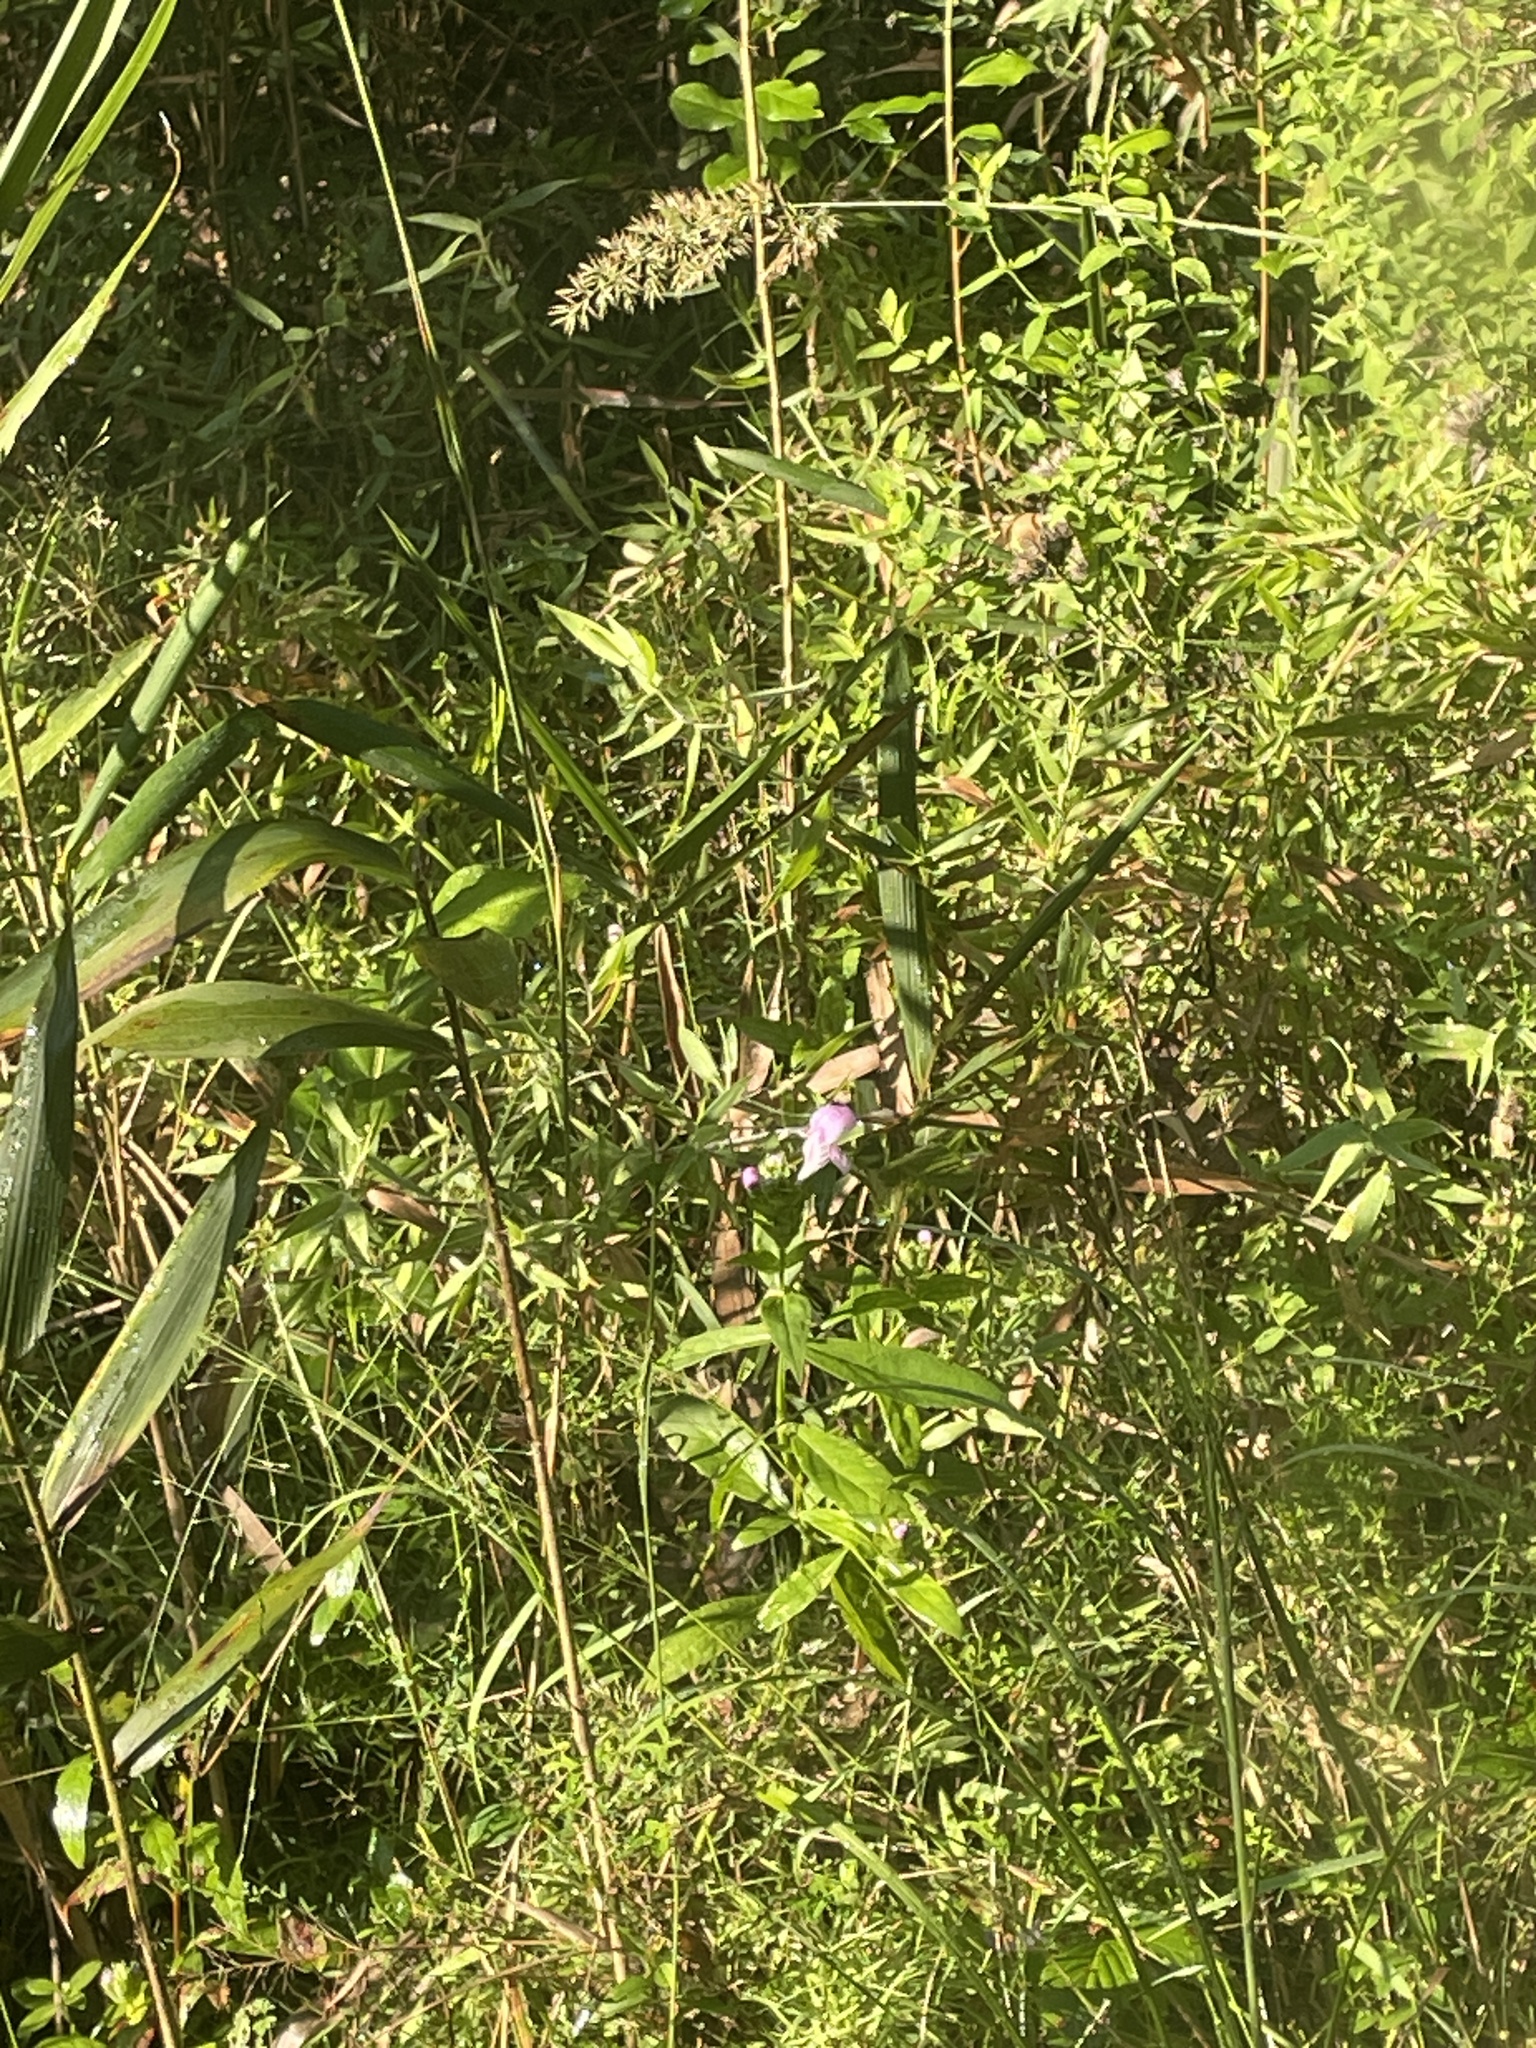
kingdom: Plantae
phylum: Tracheophyta
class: Magnoliopsida
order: Lamiales
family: Lamiaceae
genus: Macbridea
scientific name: Macbridea caroliniana
